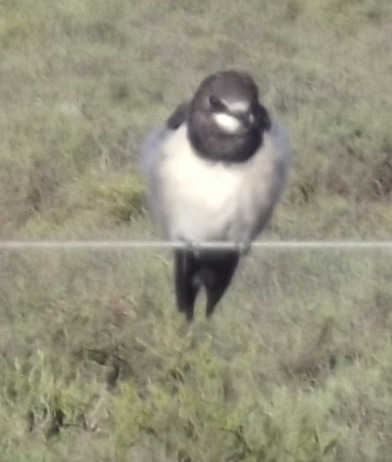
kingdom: Animalia
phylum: Chordata
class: Aves
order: Passeriformes
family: Hirundinidae
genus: Hirundo
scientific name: Hirundo rustica
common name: Barn swallow
